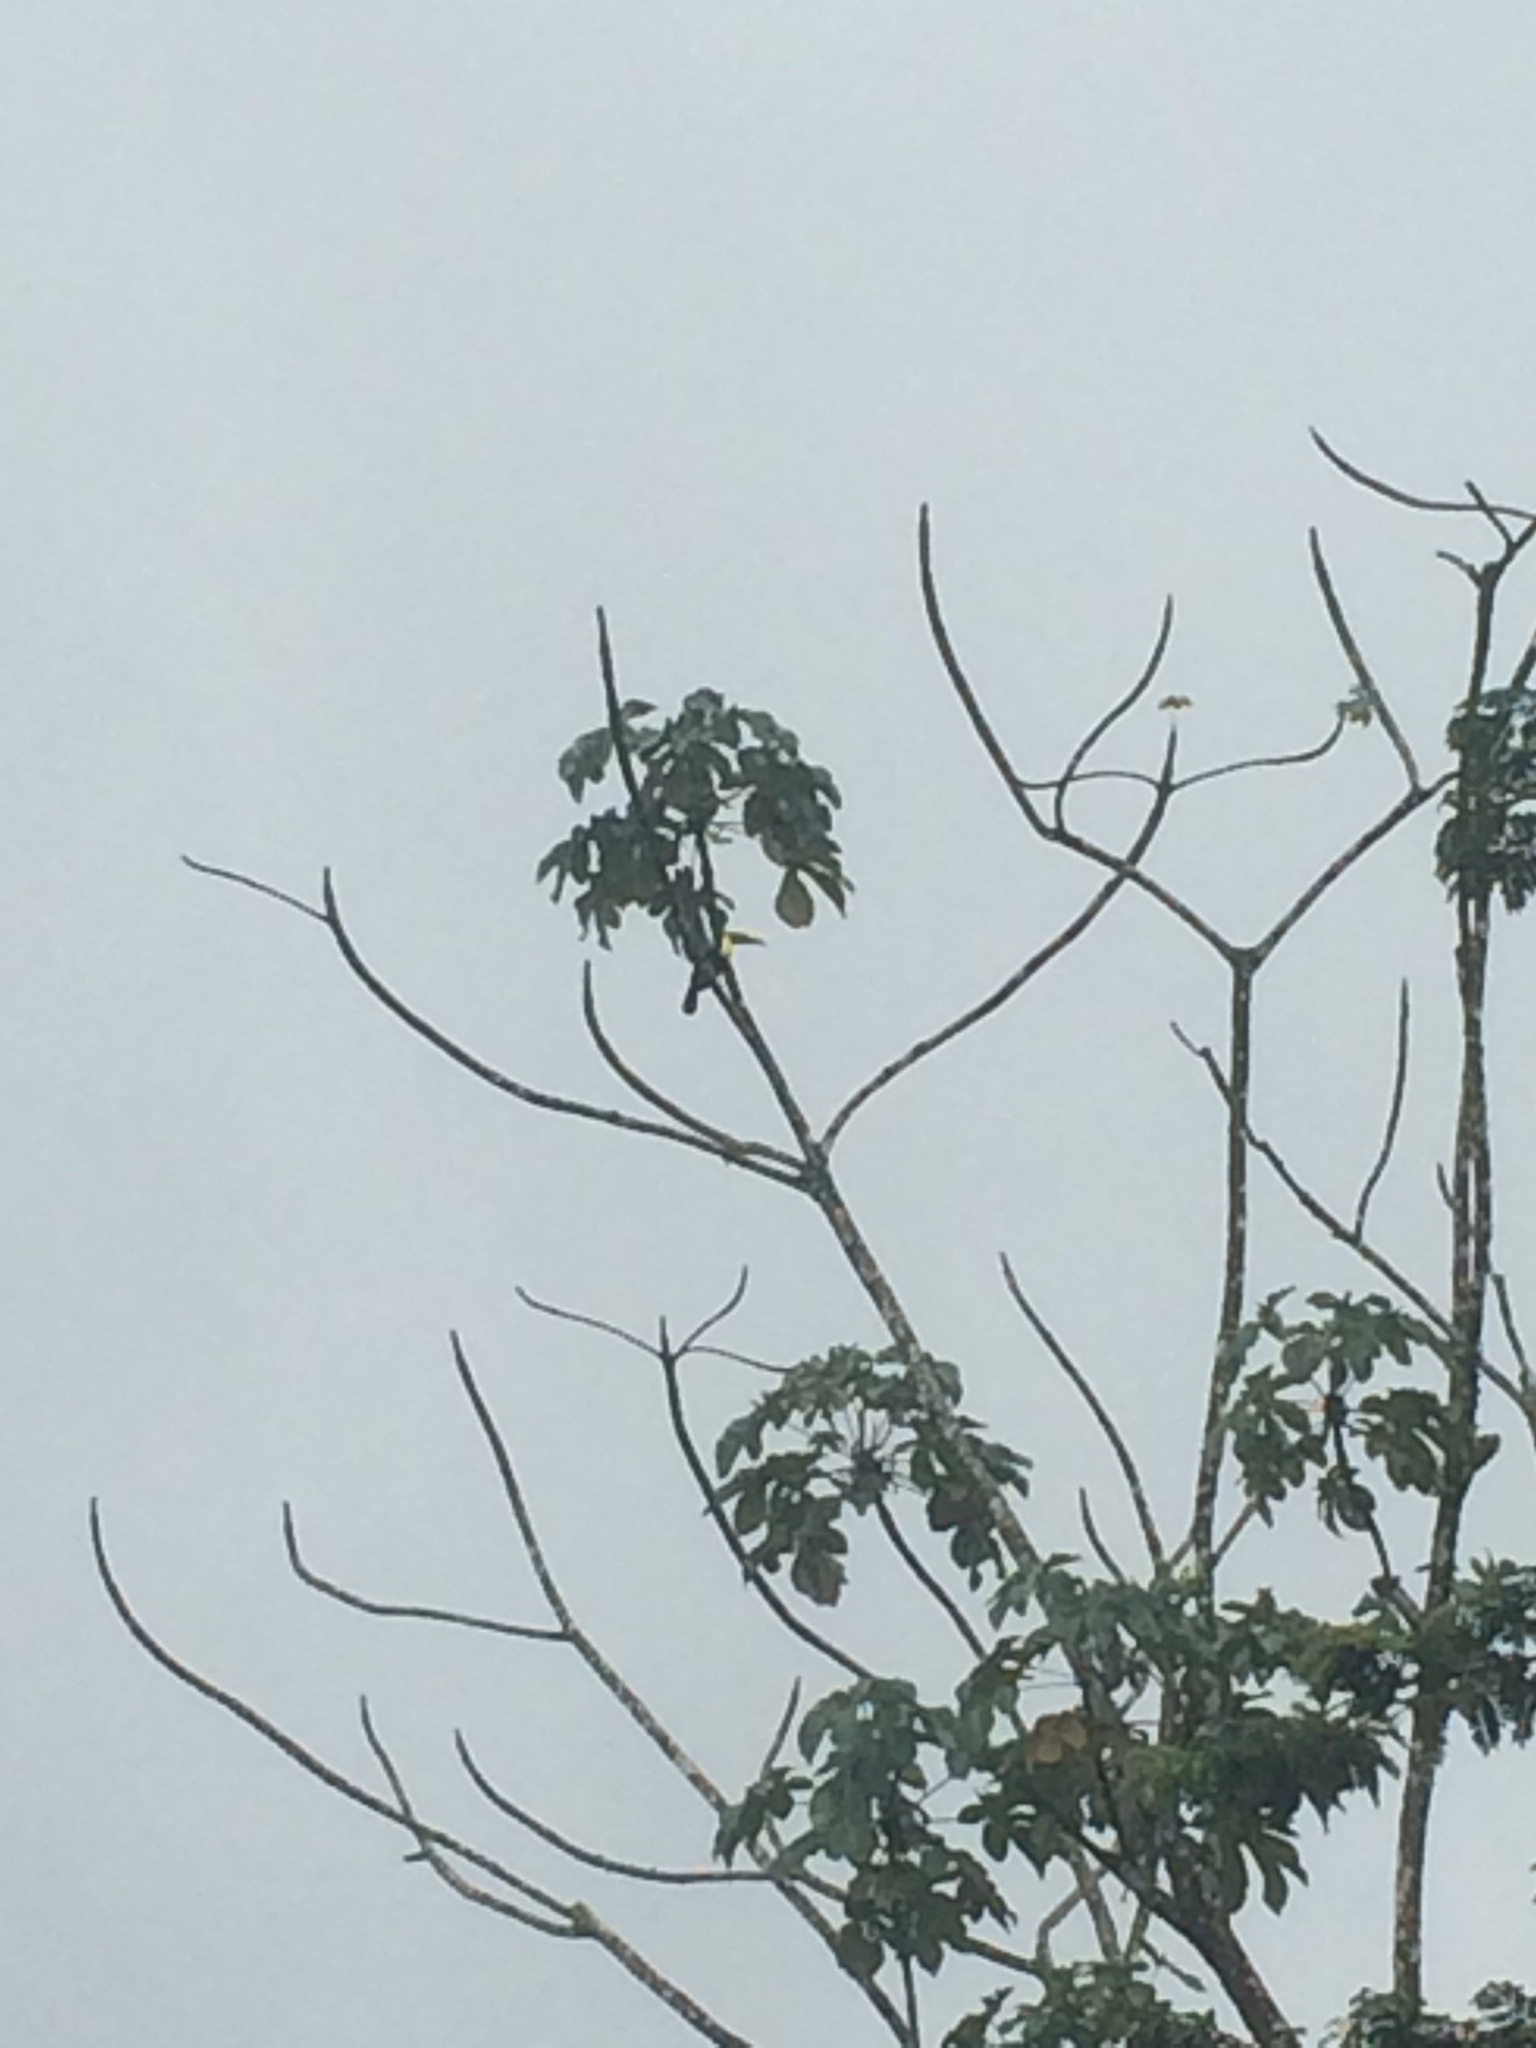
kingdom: Animalia
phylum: Chordata
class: Aves
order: Piciformes
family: Ramphastidae
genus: Ramphastos
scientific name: Ramphastos ambiguus
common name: Yellow-throated toucan
